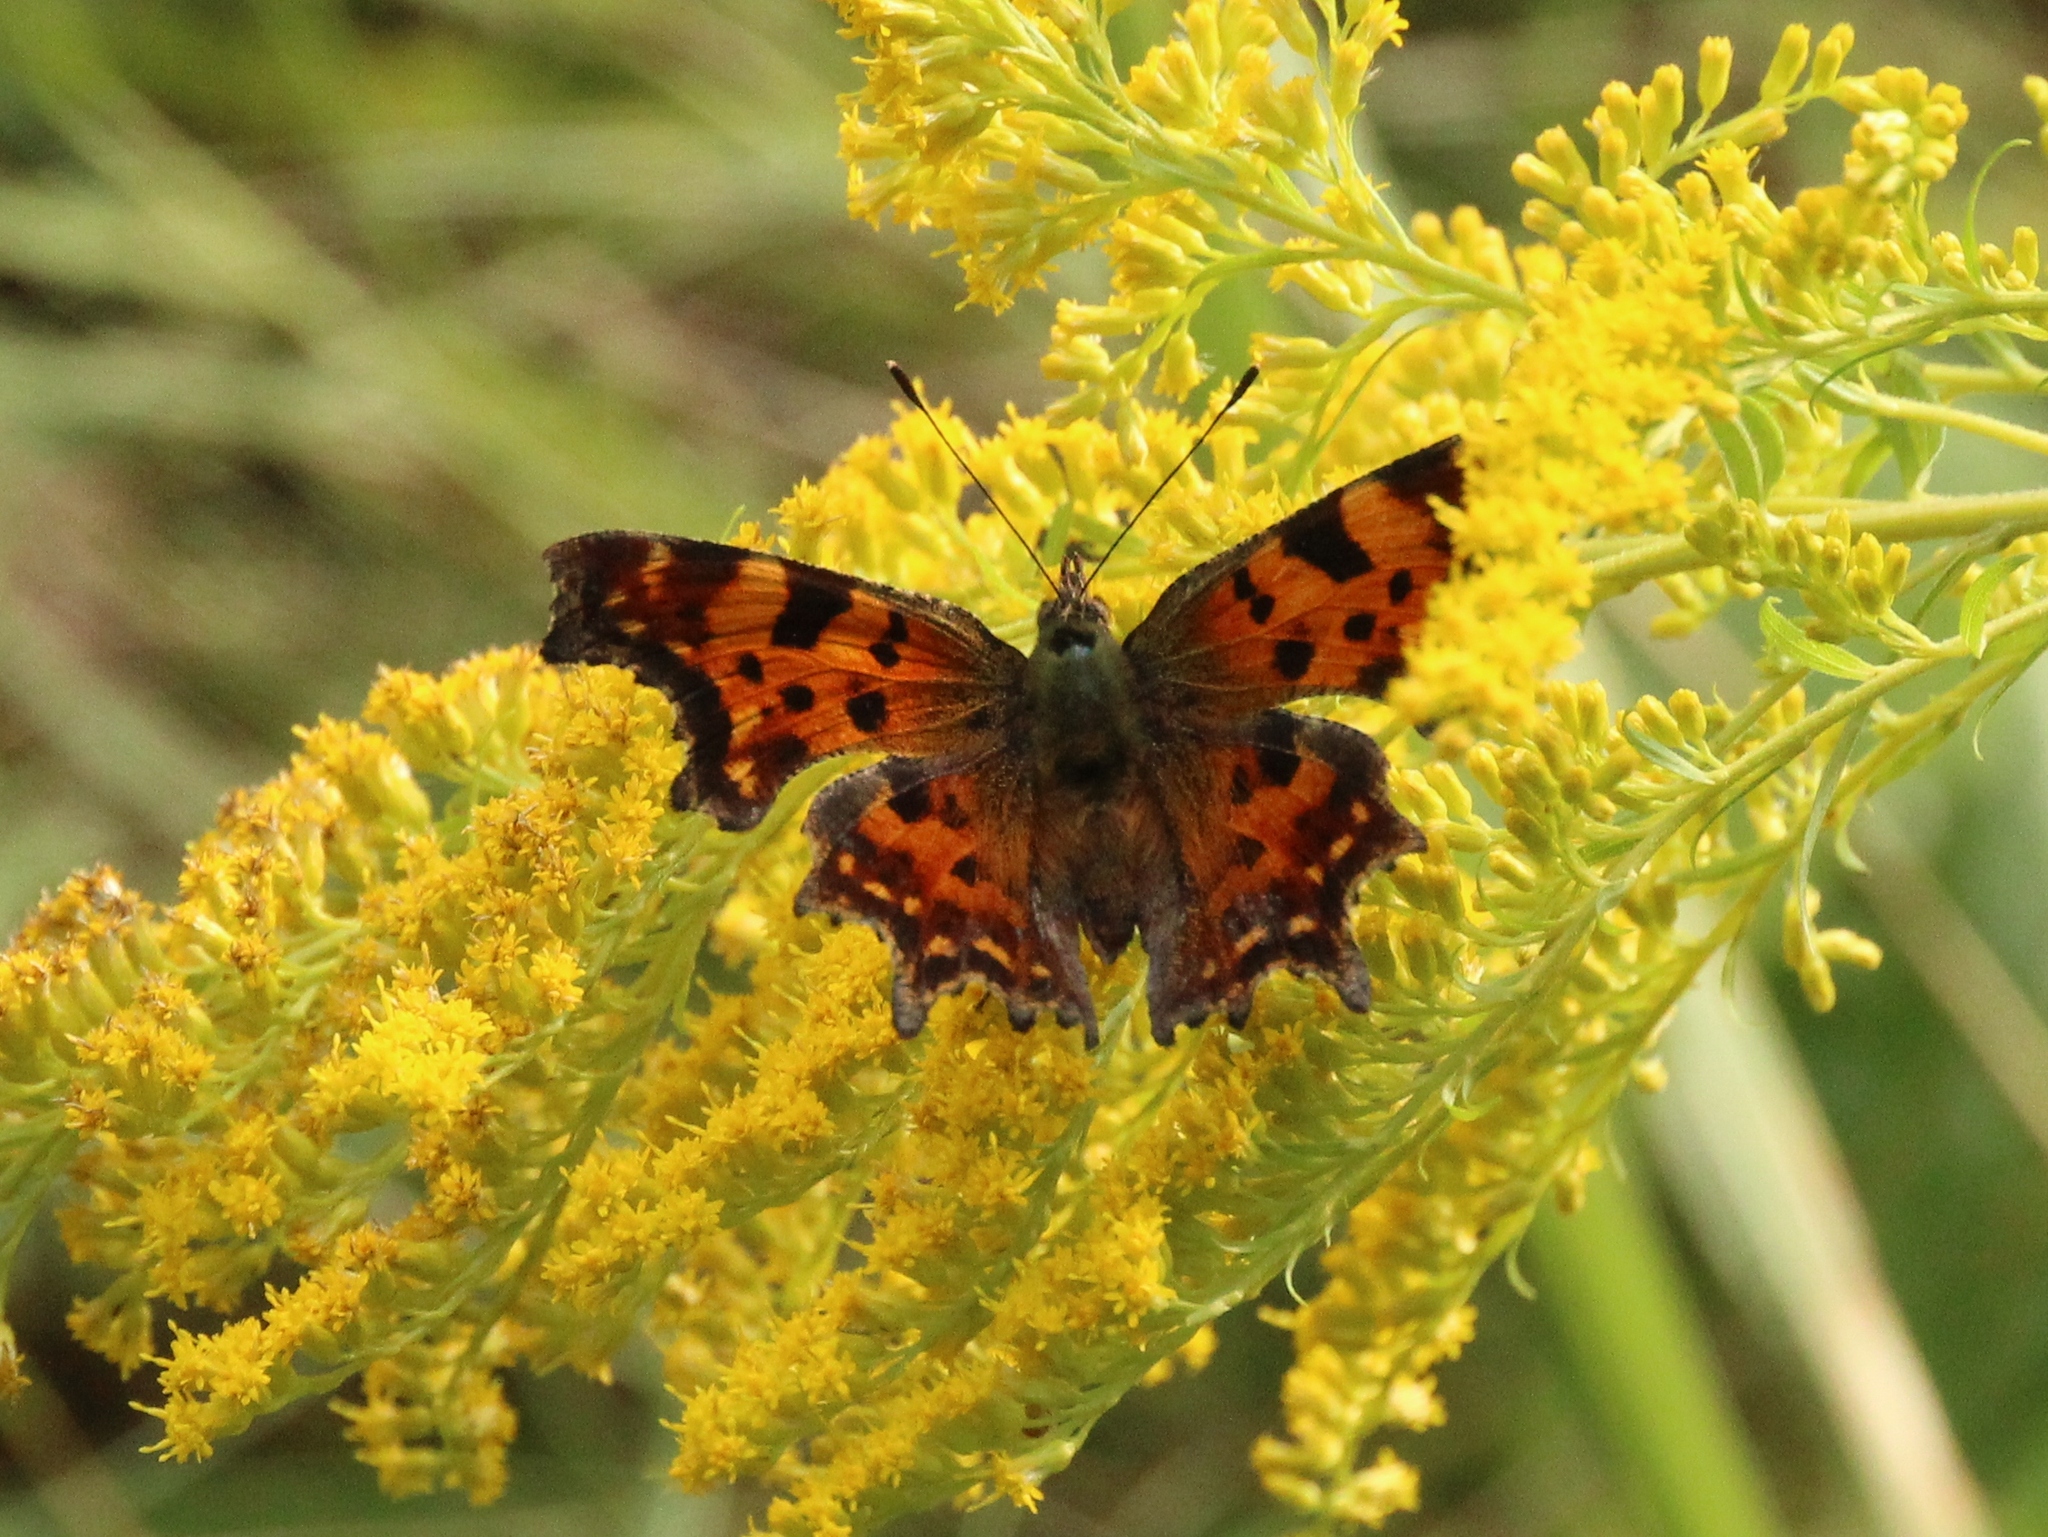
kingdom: Animalia
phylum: Arthropoda
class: Insecta
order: Lepidoptera
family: Nymphalidae
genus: Polygonia
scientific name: Polygonia c-album
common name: Comma
